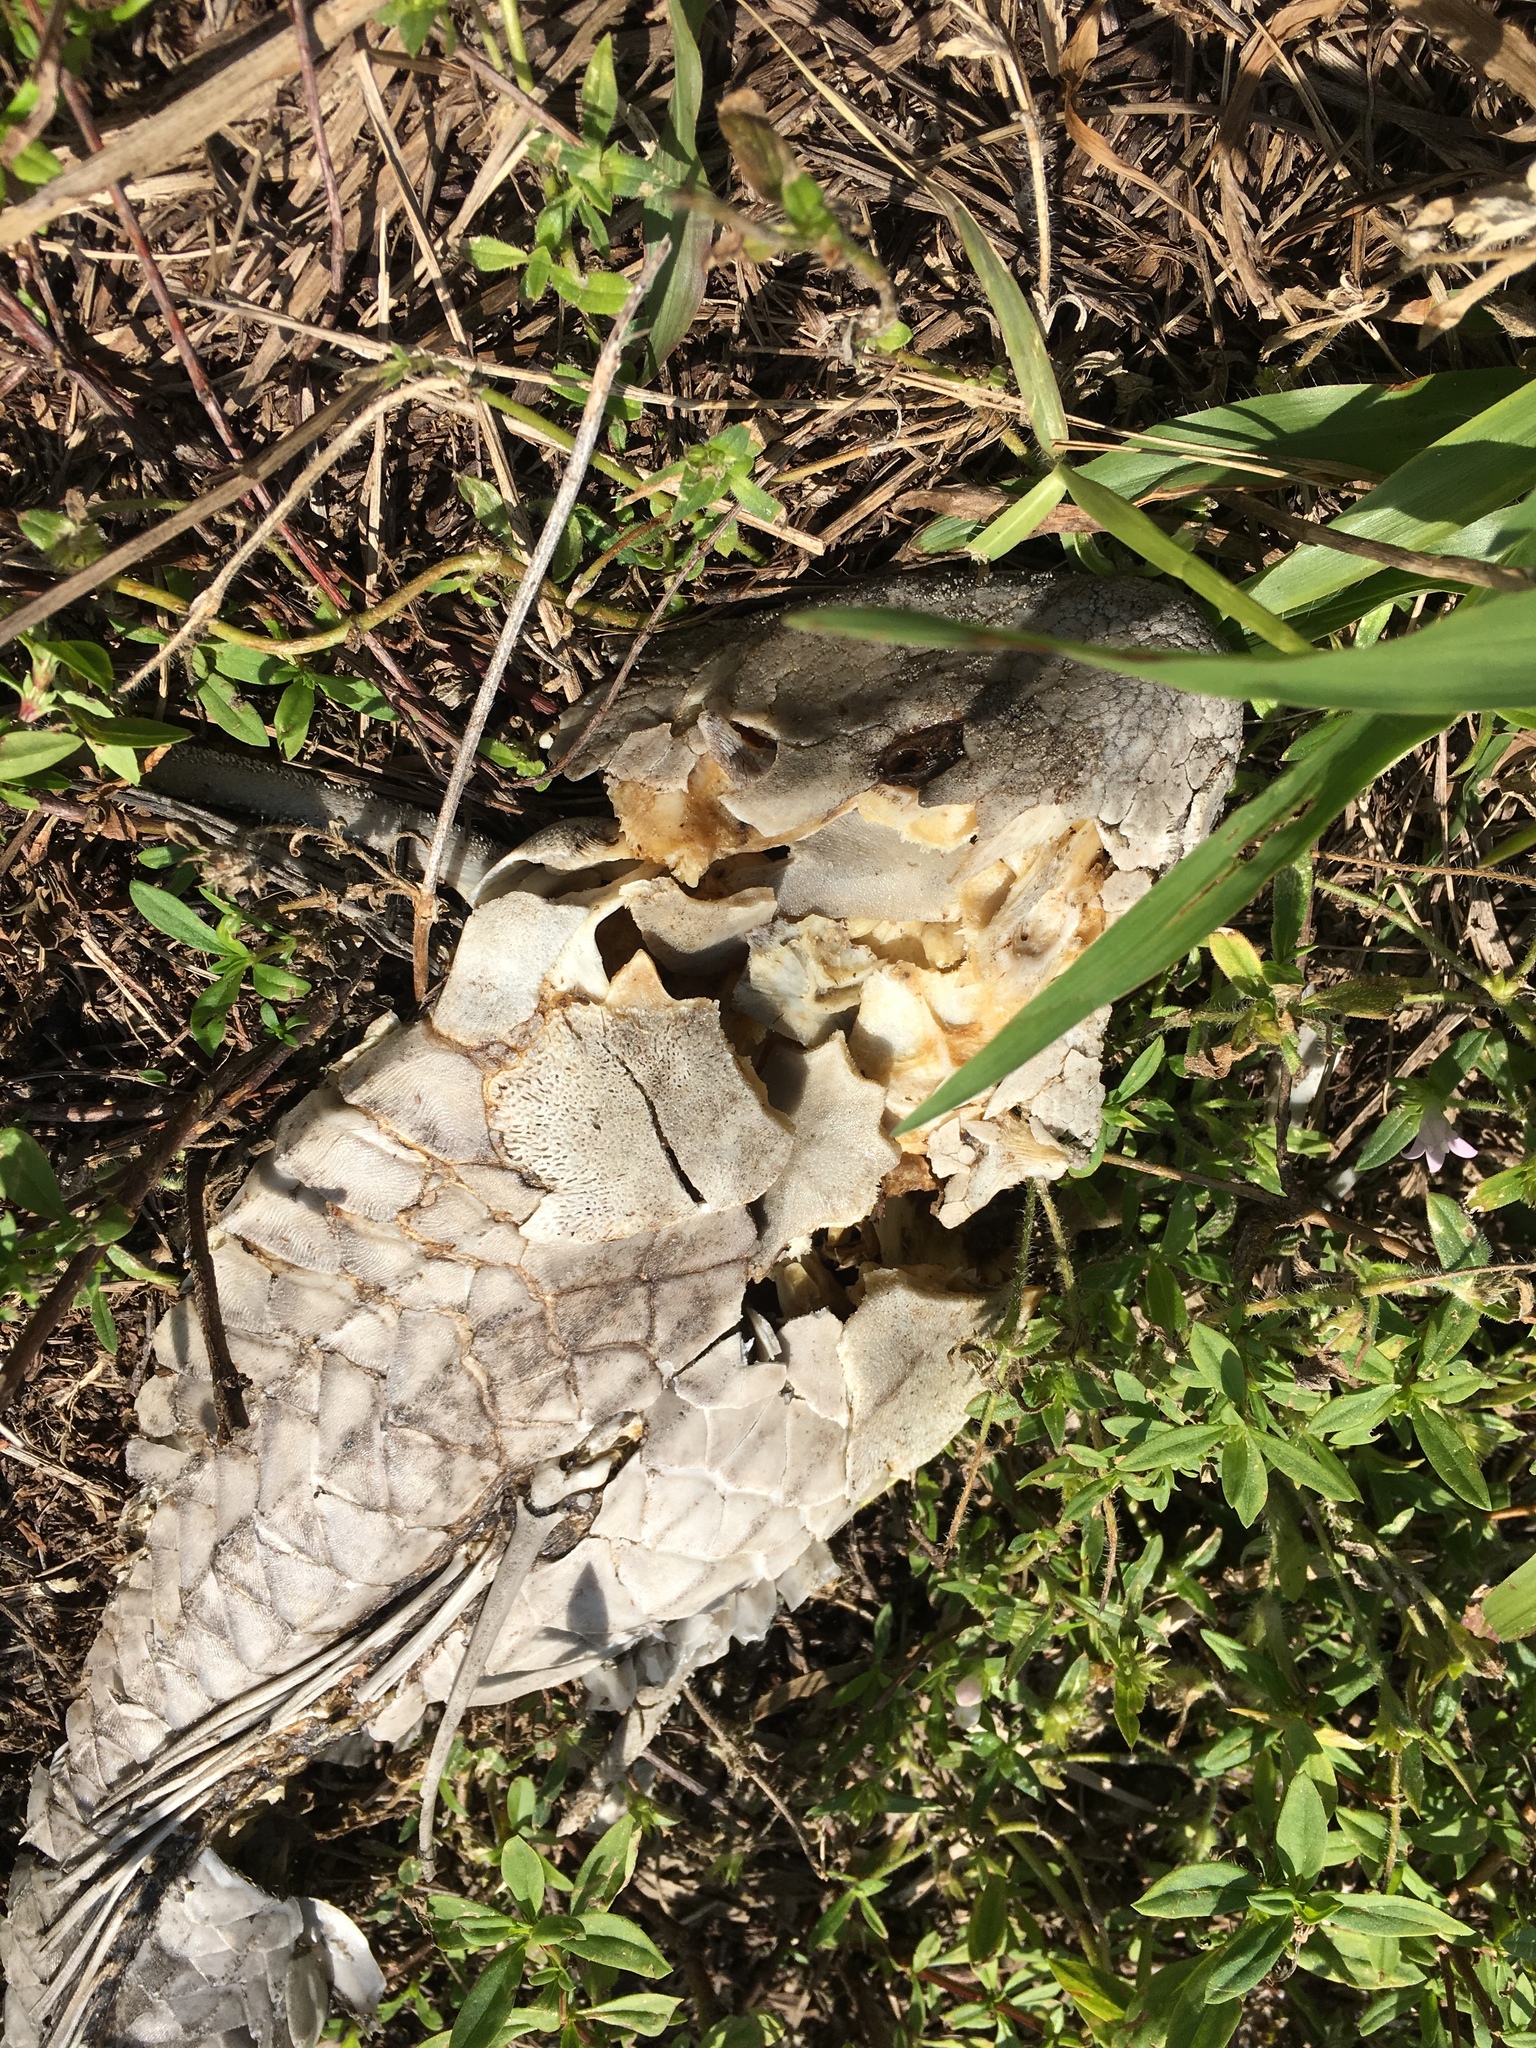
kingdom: Animalia
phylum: Chordata
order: Siluriformes
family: Loricariidae
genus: Pterygoplichthys
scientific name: Pterygoplichthys
